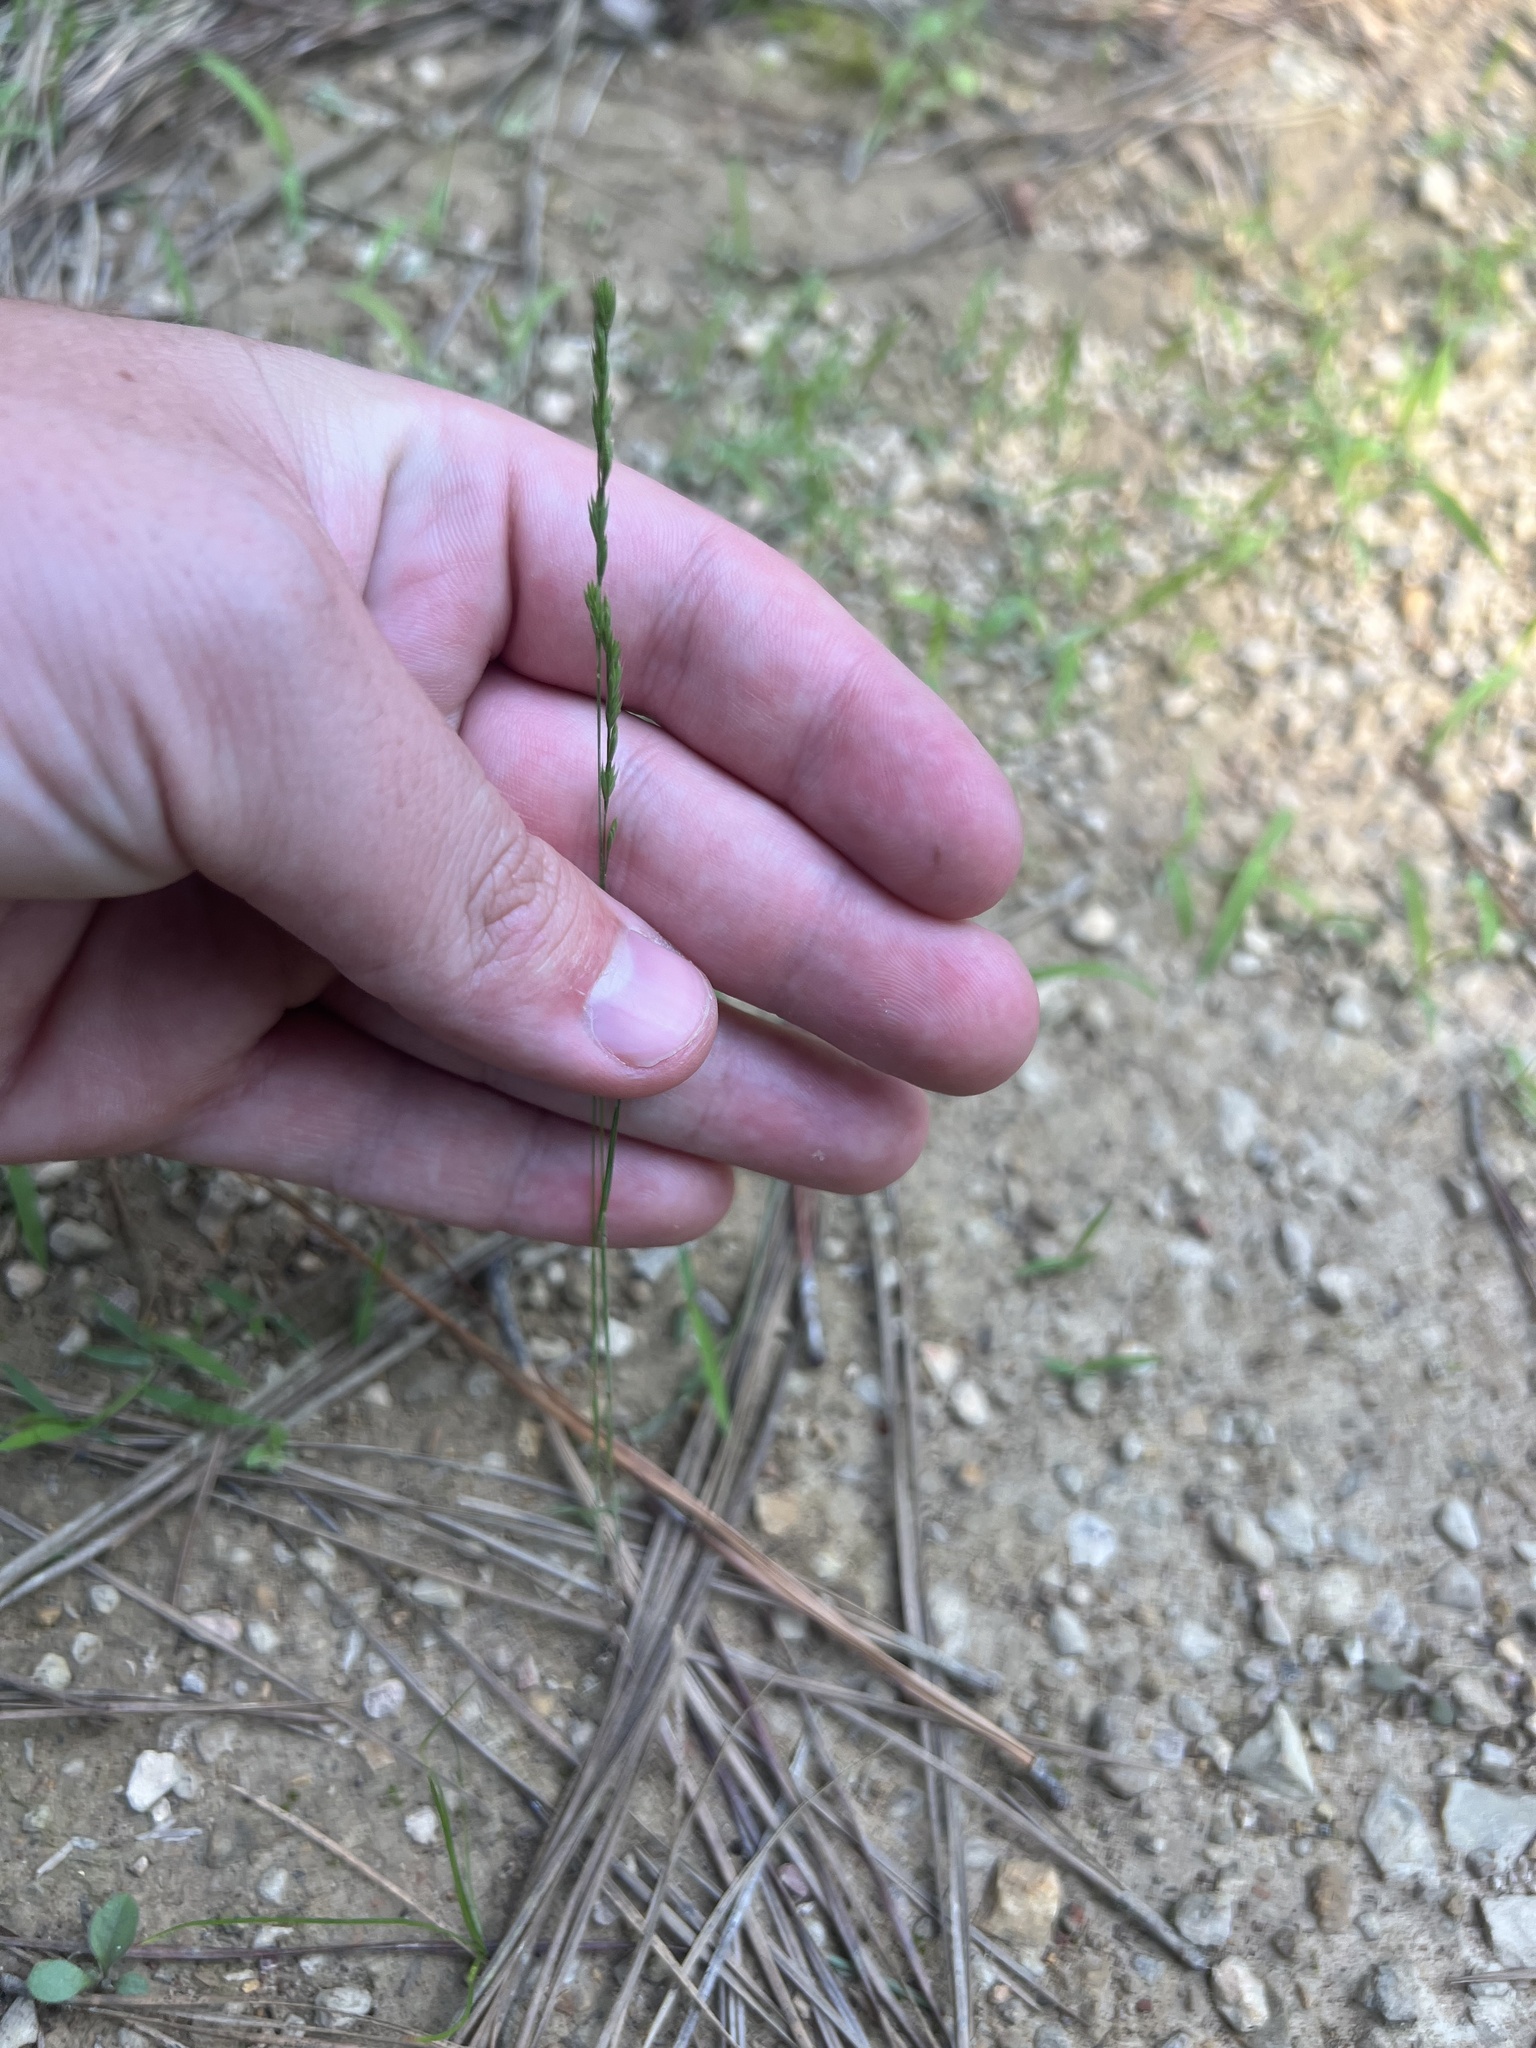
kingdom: Plantae
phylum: Tracheophyta
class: Liliopsida
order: Poales
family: Poaceae
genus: Festuca
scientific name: Festuca octoflora
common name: Sixweeks grass
